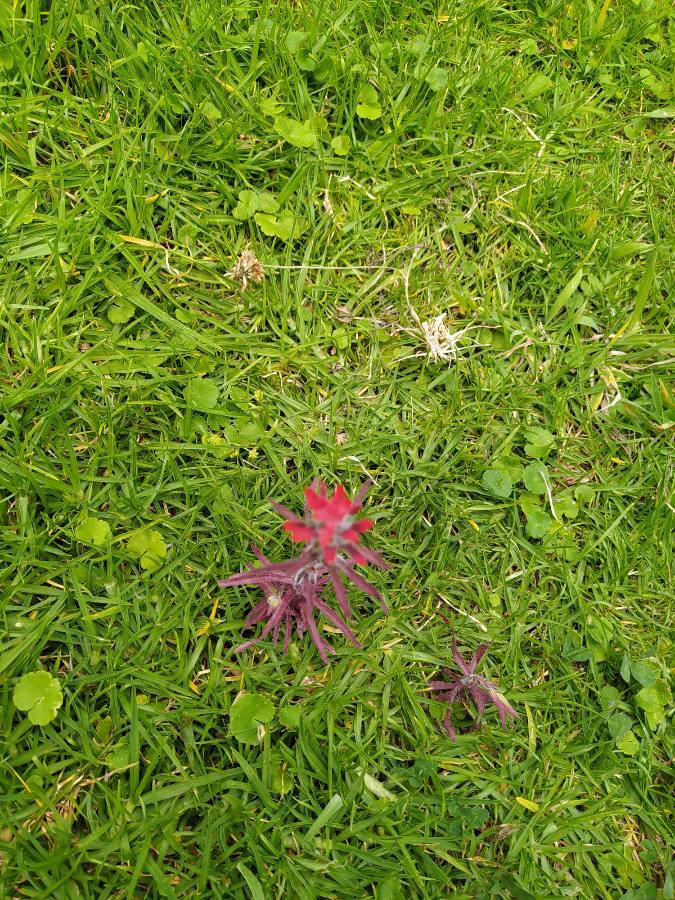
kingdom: Plantae
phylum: Tracheophyta
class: Magnoliopsida
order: Lamiales
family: Orobanchaceae
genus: Castilleja
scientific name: Castilleja arvensis
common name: Indian paintbrush
